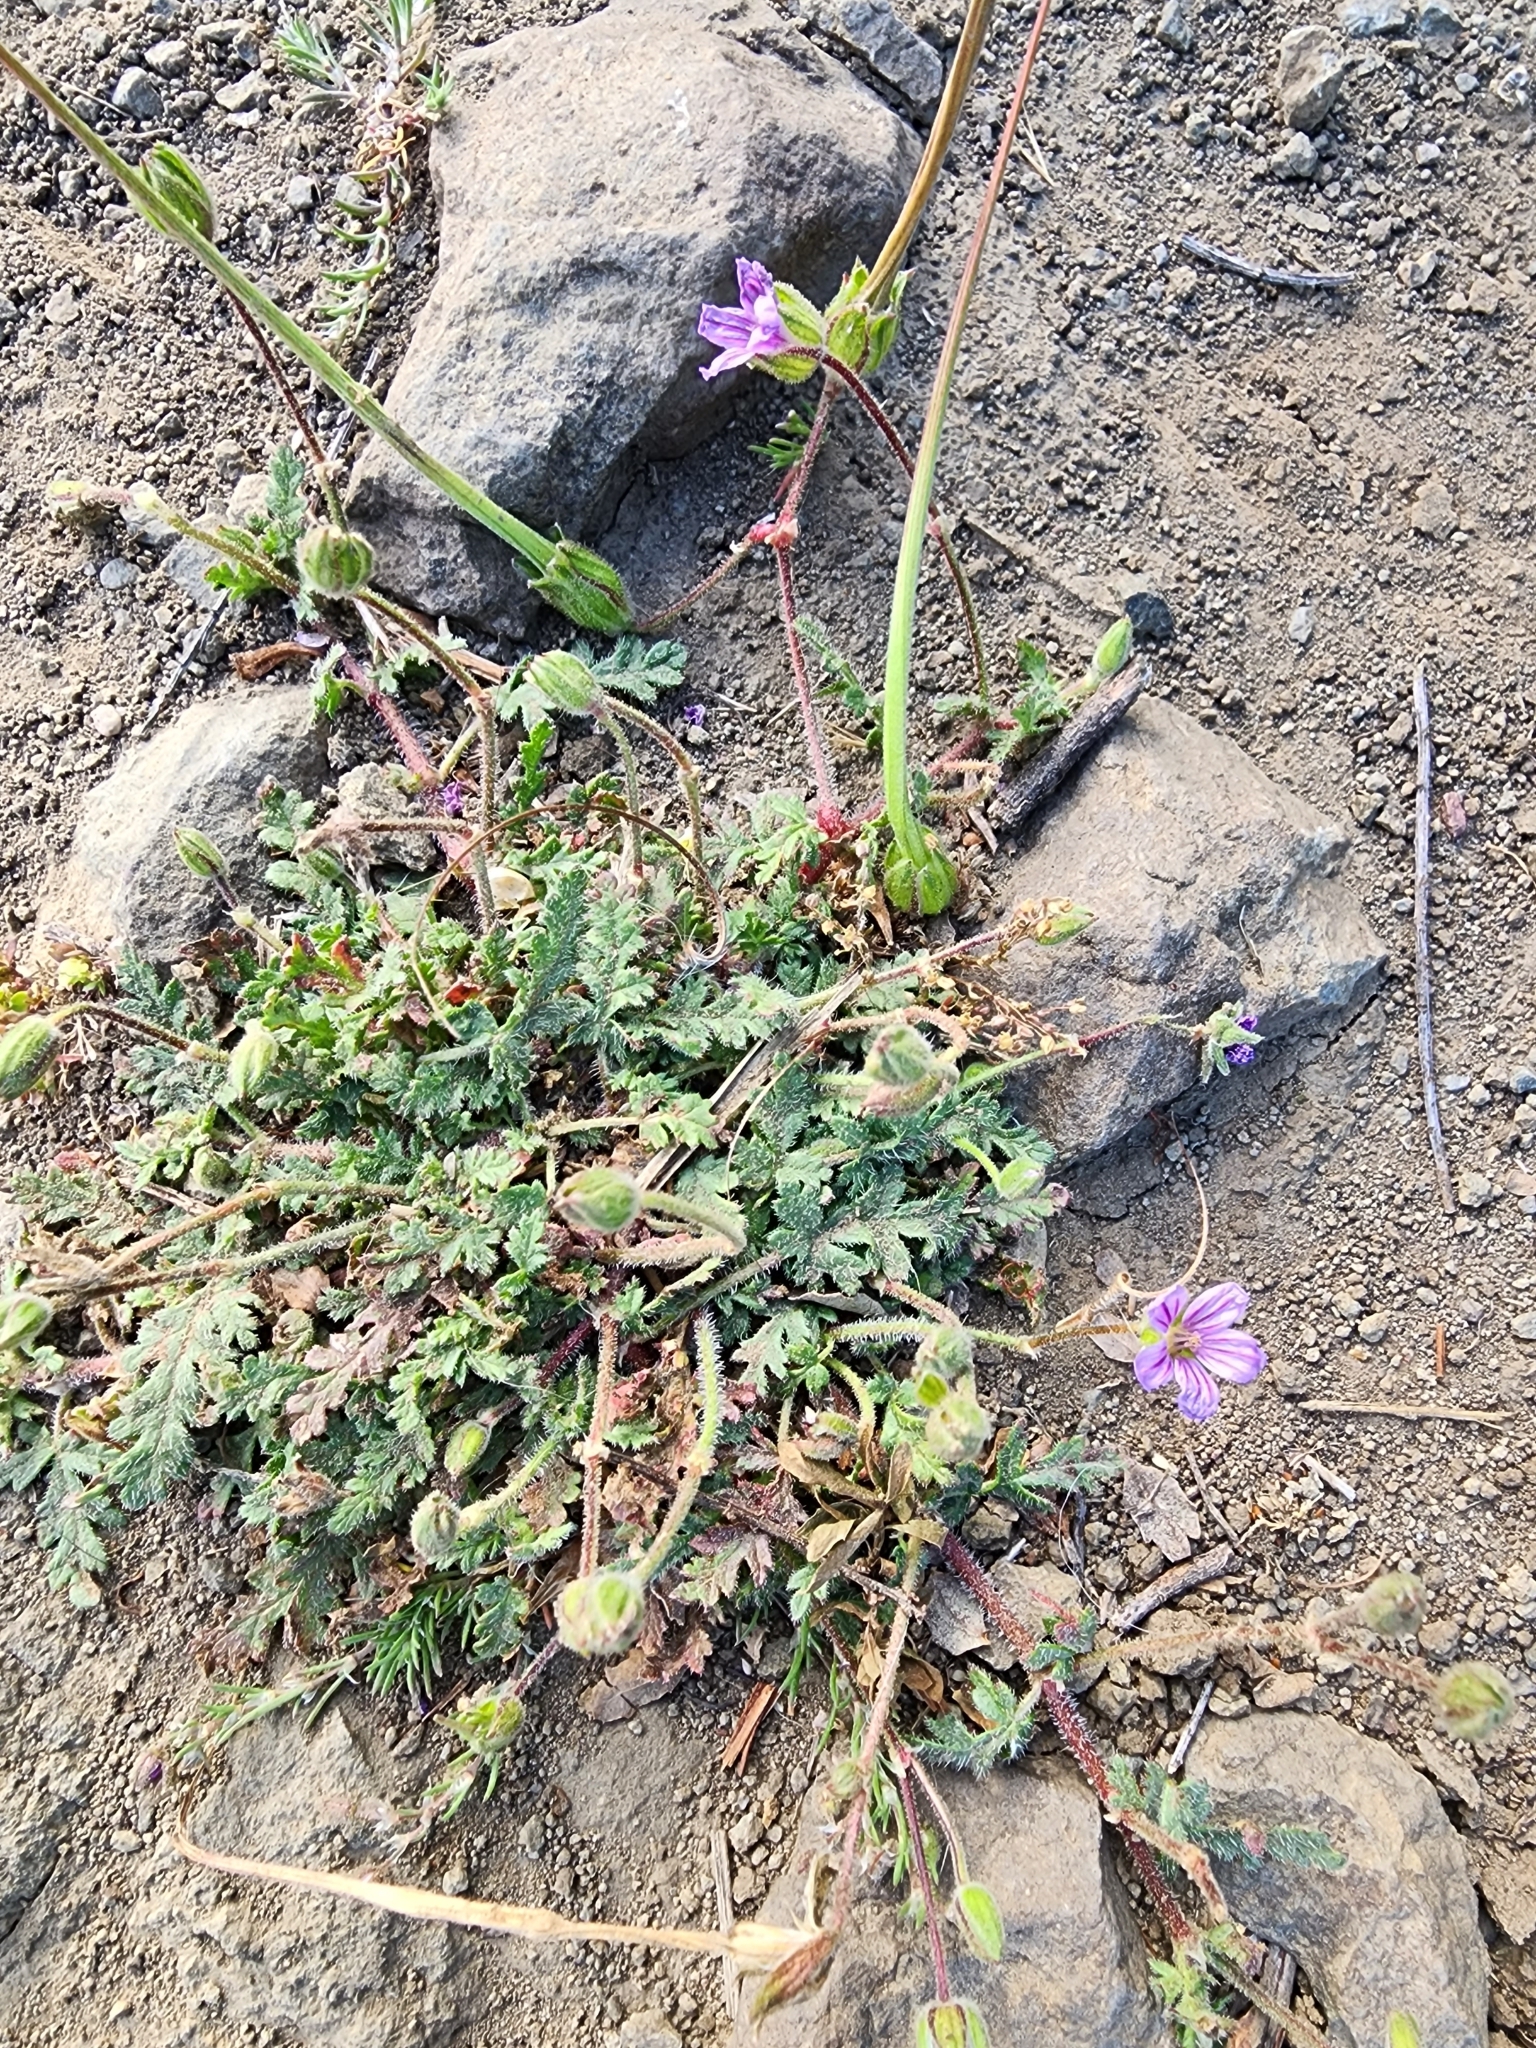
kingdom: Plantae
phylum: Tracheophyta
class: Magnoliopsida
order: Geraniales
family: Geraniaceae
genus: Erodium
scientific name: Erodium botrys
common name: Mediterranean stork's-bill
